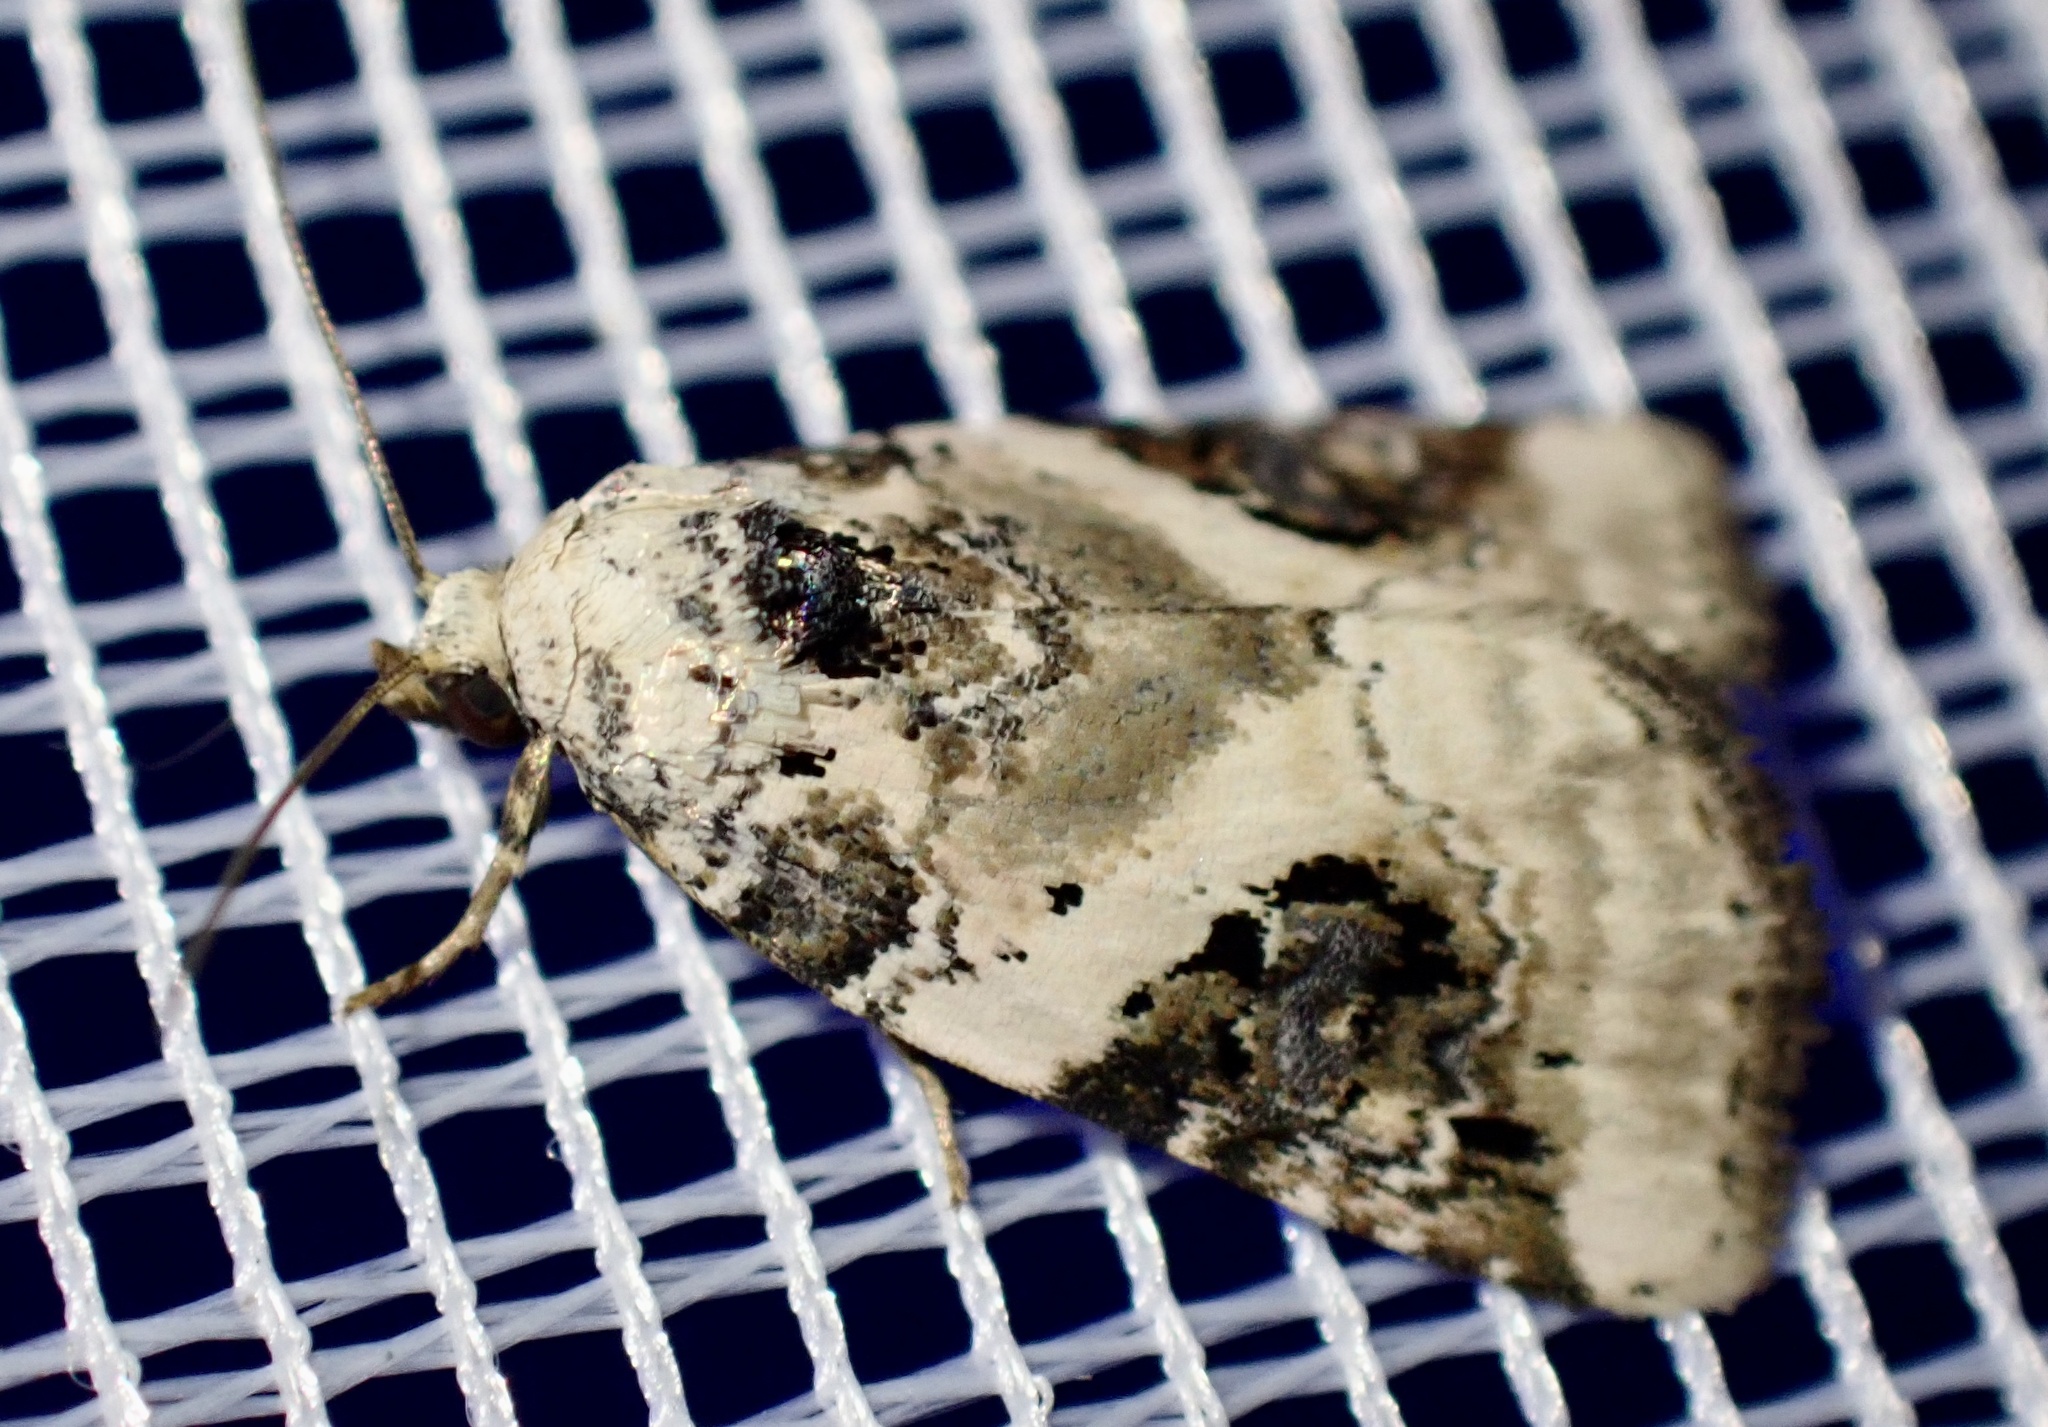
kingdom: Animalia
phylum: Arthropoda
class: Insecta
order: Lepidoptera
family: Noctuidae
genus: Pseudeustrotia
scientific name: Pseudeustrotia candidula
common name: Shining marbled
